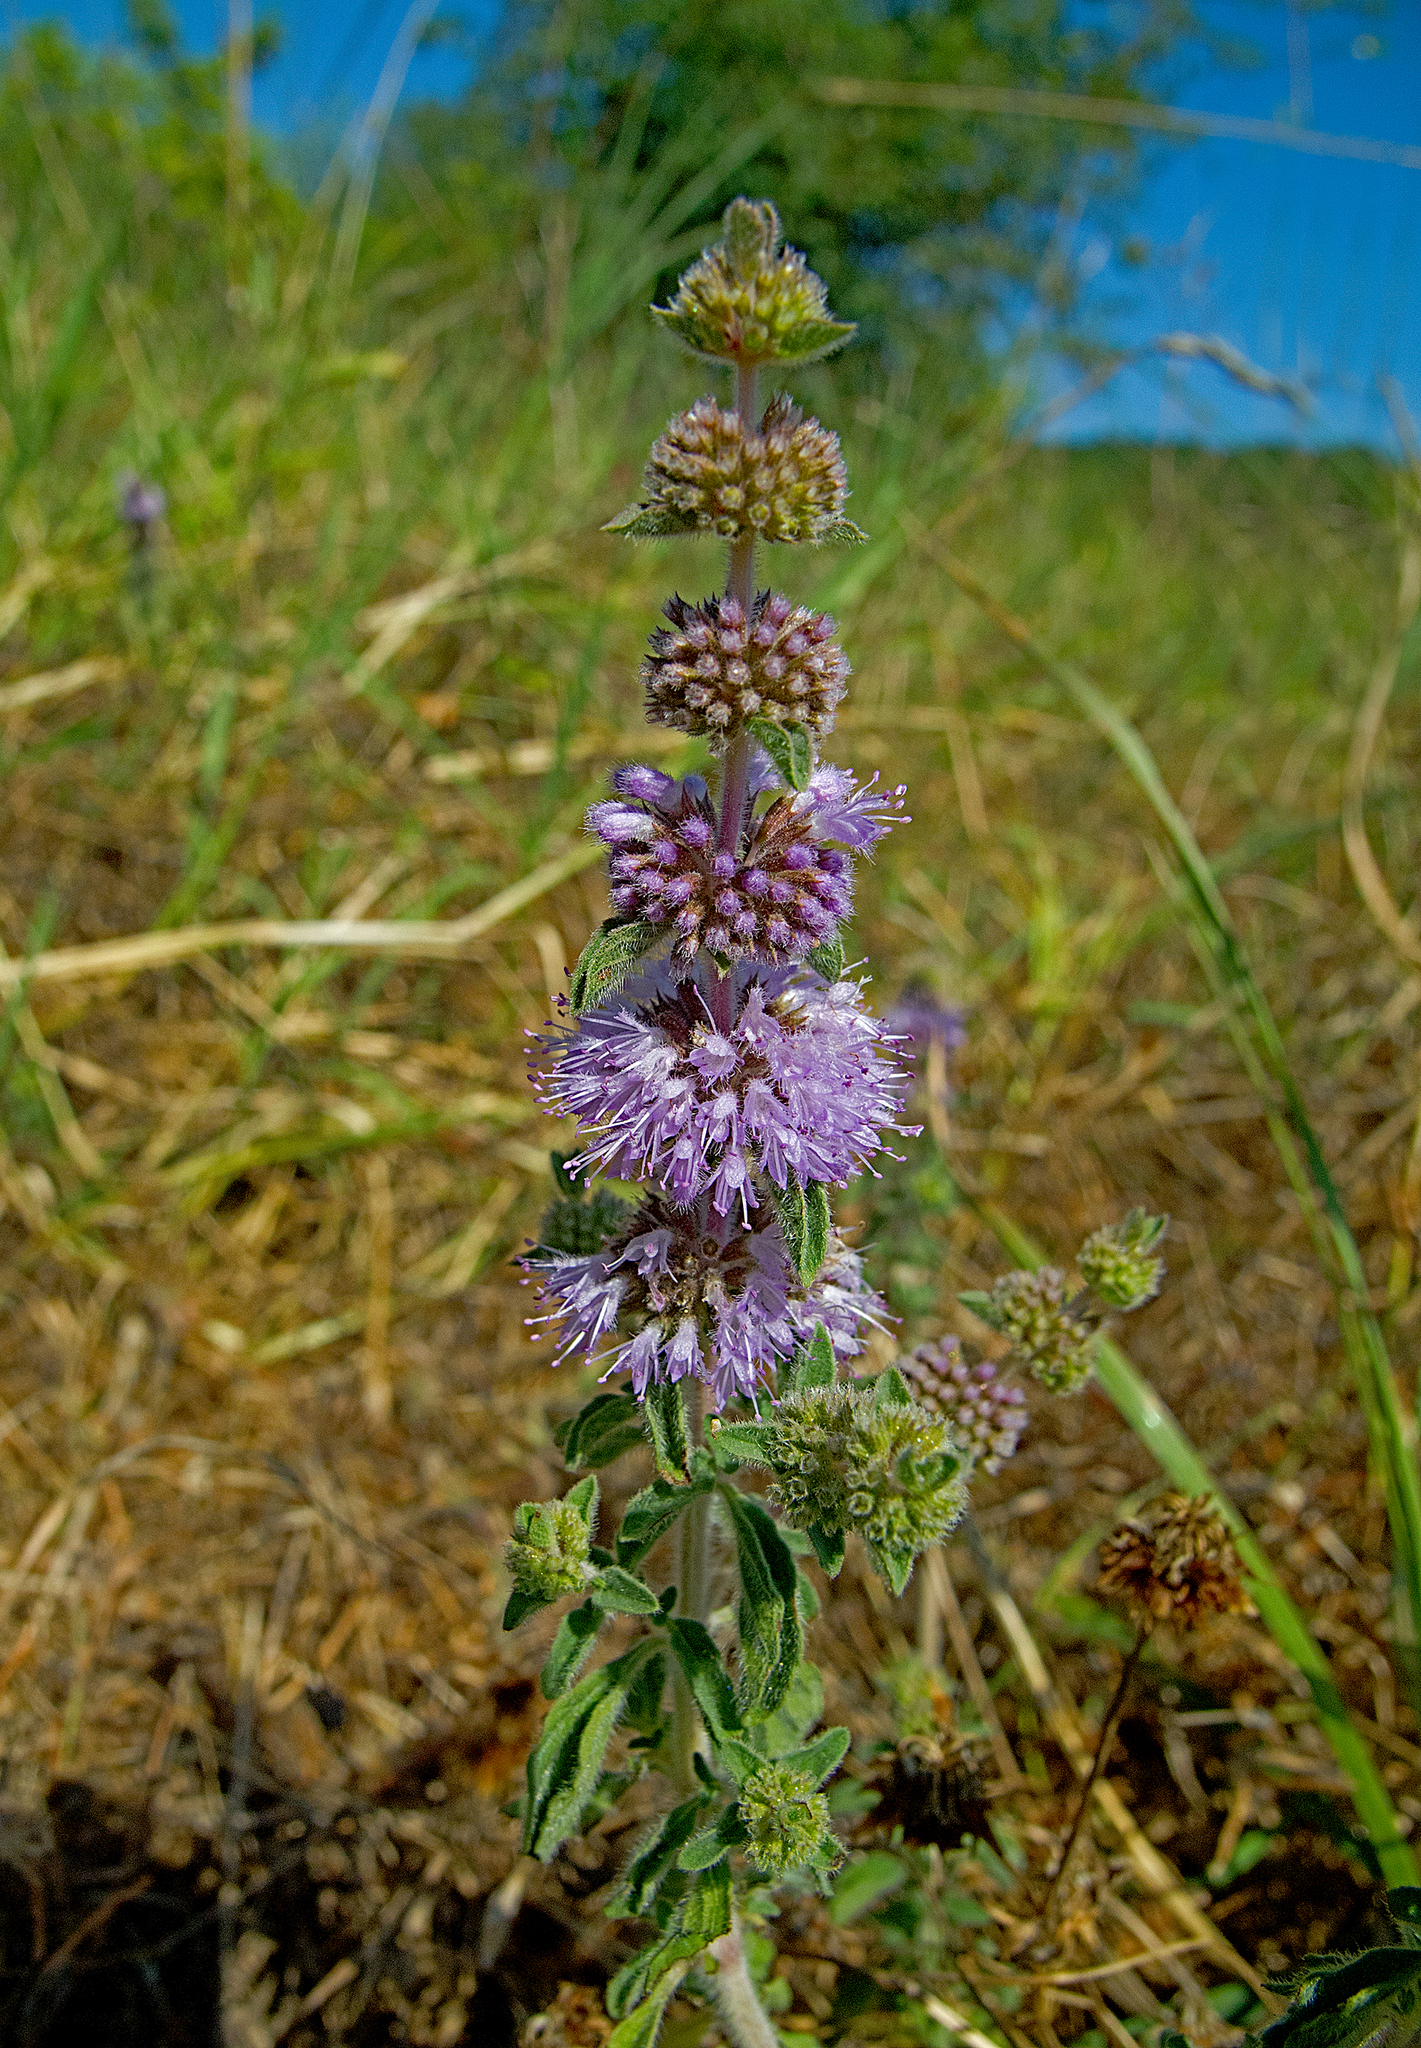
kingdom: Plantae
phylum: Tracheophyta
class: Magnoliopsida
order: Lamiales
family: Lamiaceae
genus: Mentha
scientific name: Mentha pulegium
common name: Pennyroyal
